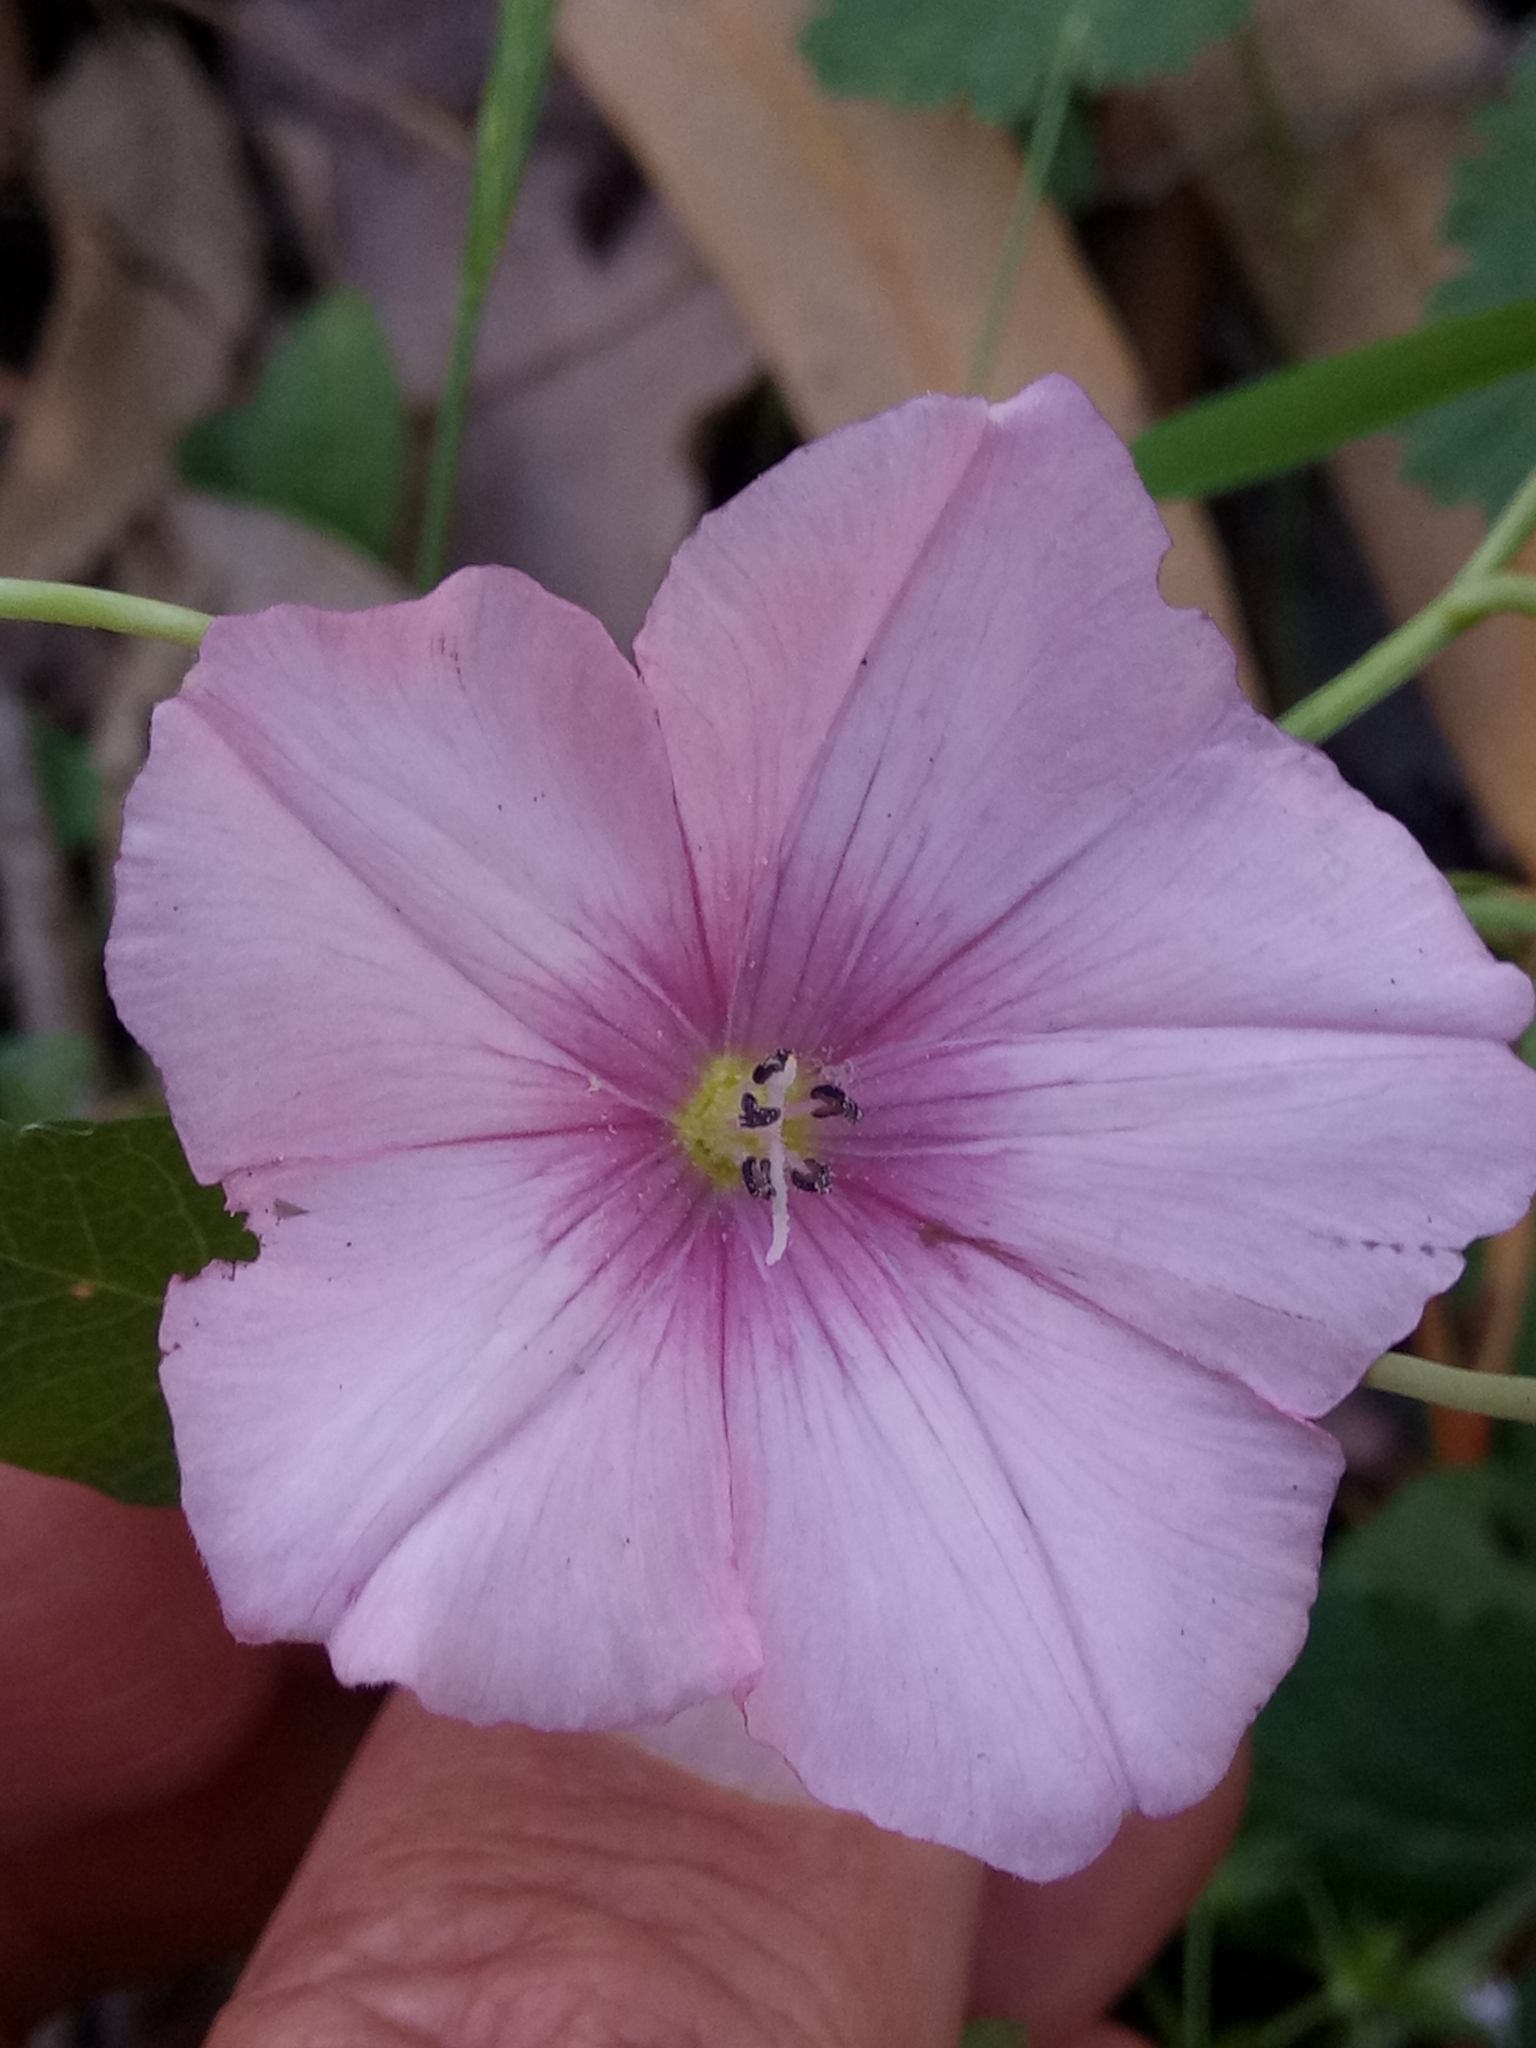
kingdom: Plantae
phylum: Tracheophyta
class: Magnoliopsida
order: Solanales
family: Convolvulaceae
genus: Convolvulus
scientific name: Convolvulus durandoi
